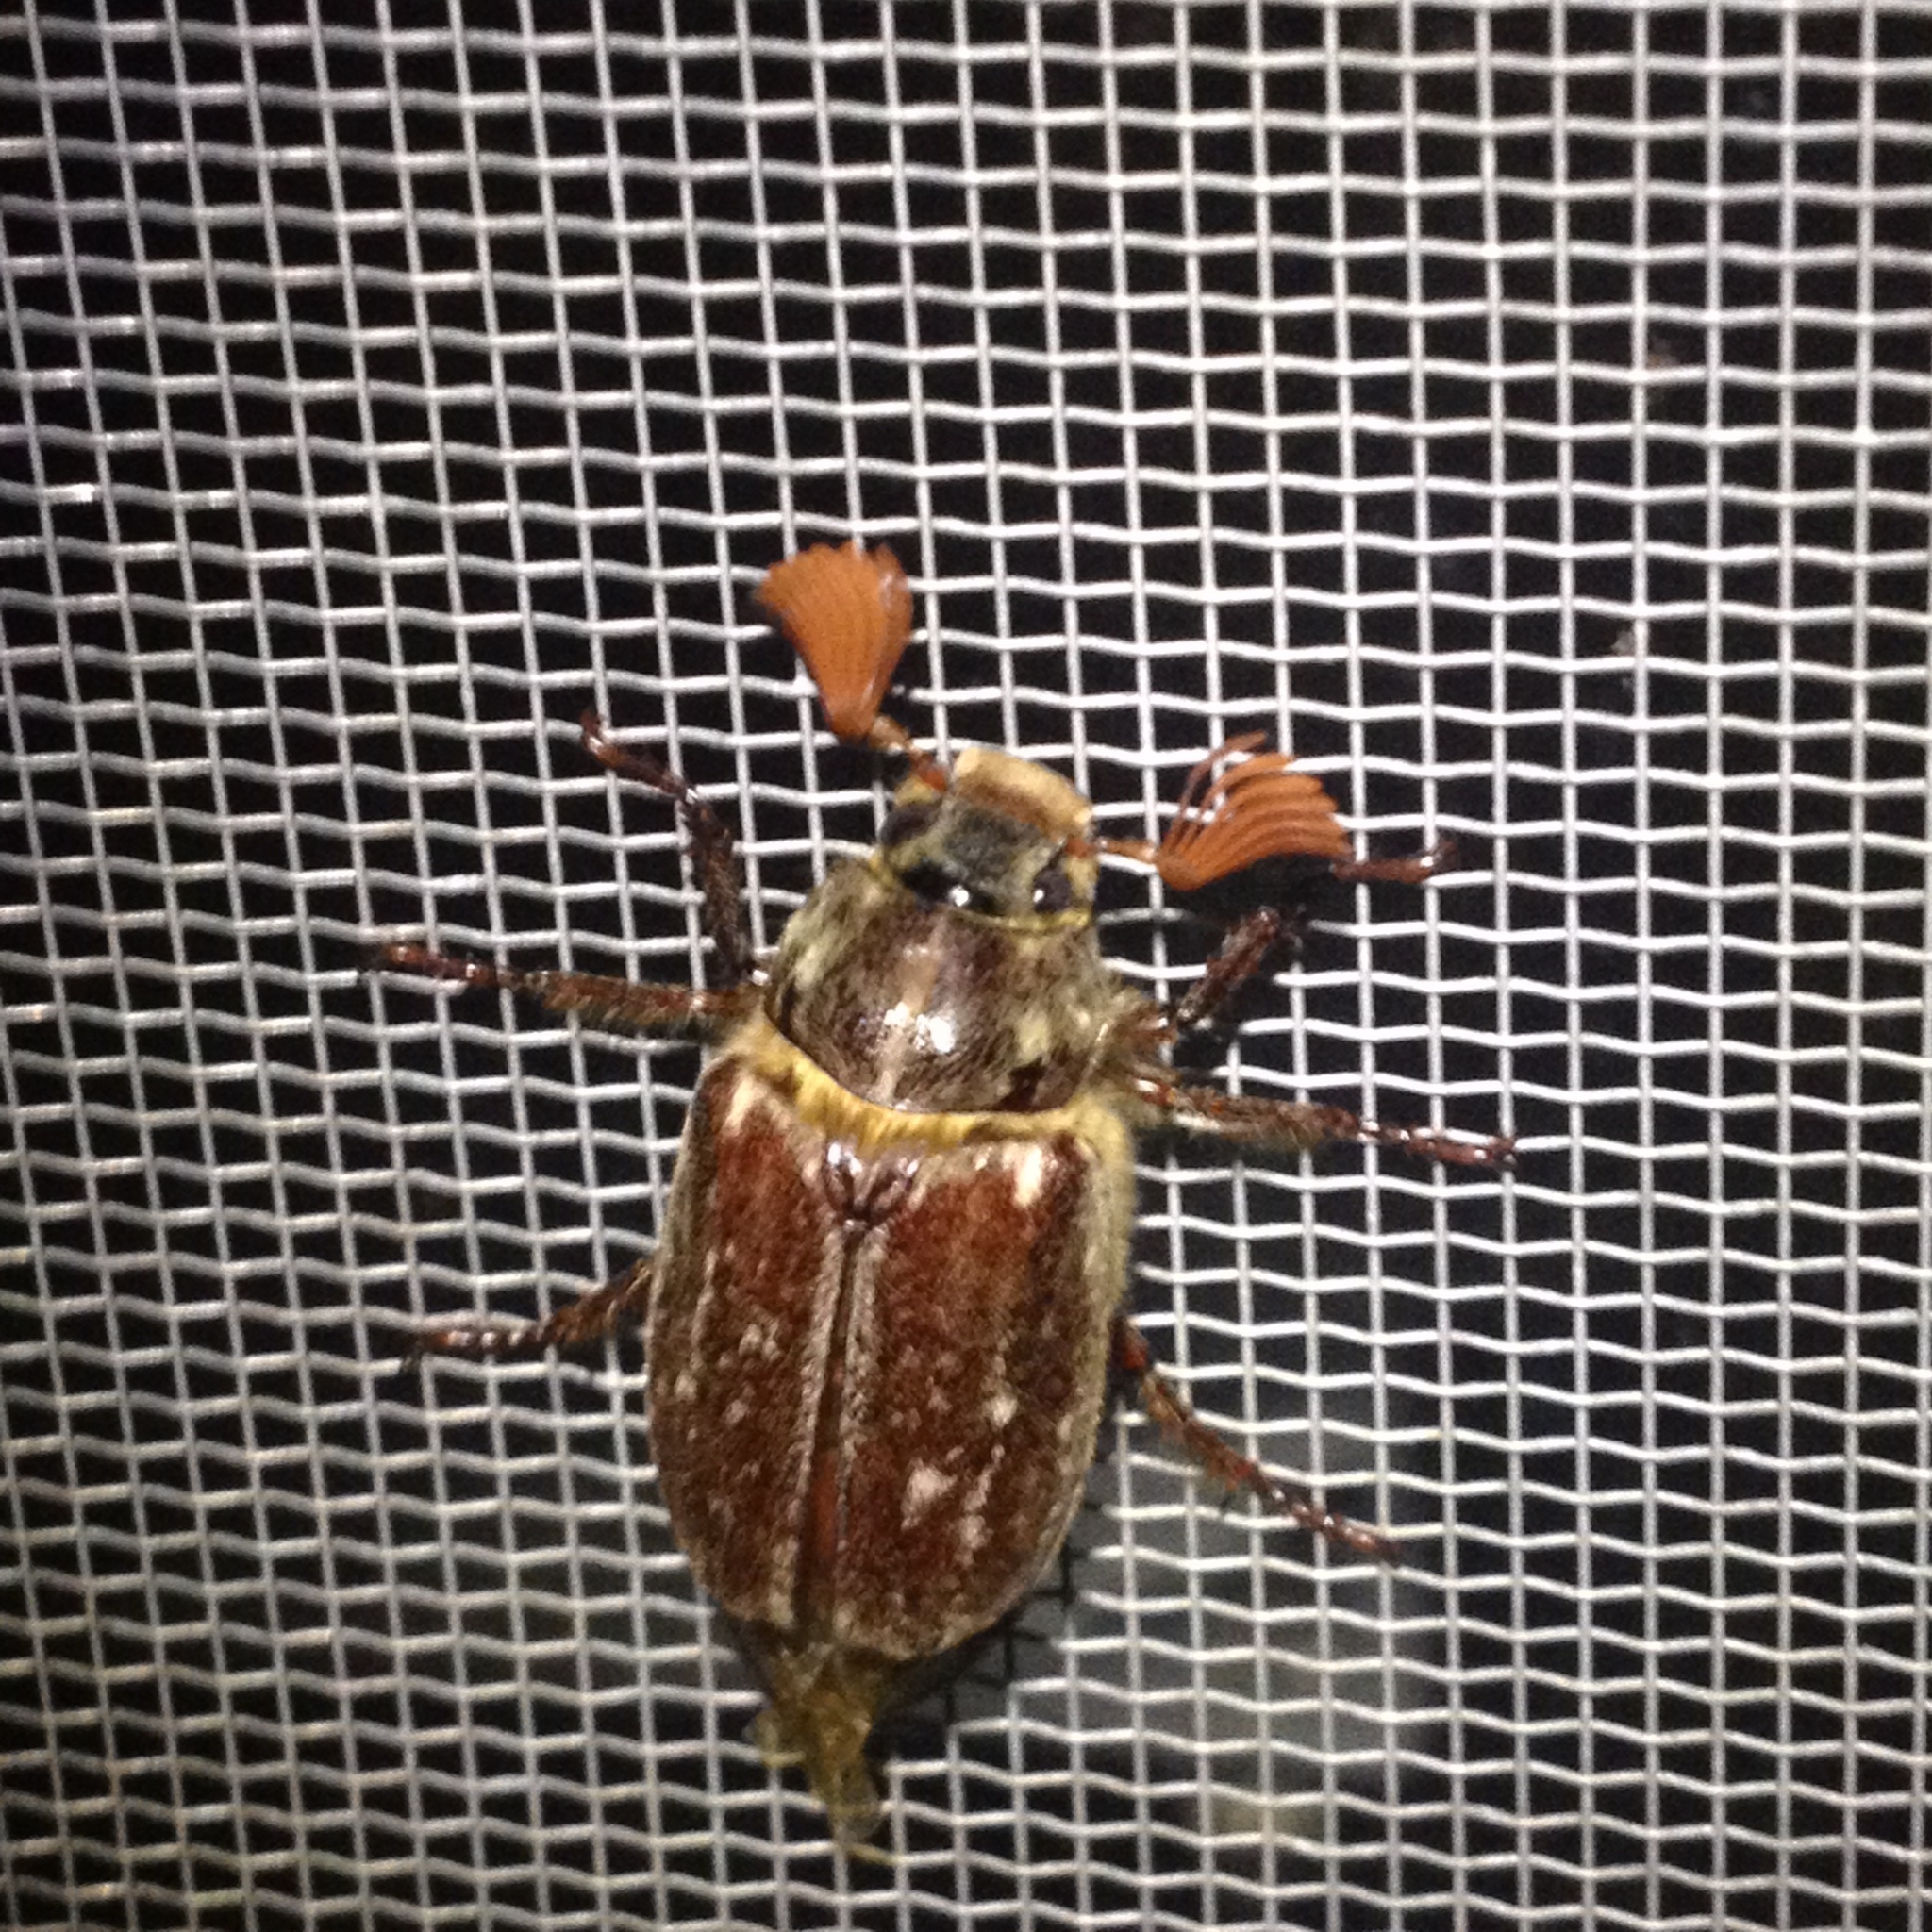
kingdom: Animalia
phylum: Arthropoda
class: Insecta
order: Coleoptera
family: Scarabaeidae
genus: Polyphylla
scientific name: Polyphylla variolosa
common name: Variegated june beetle
